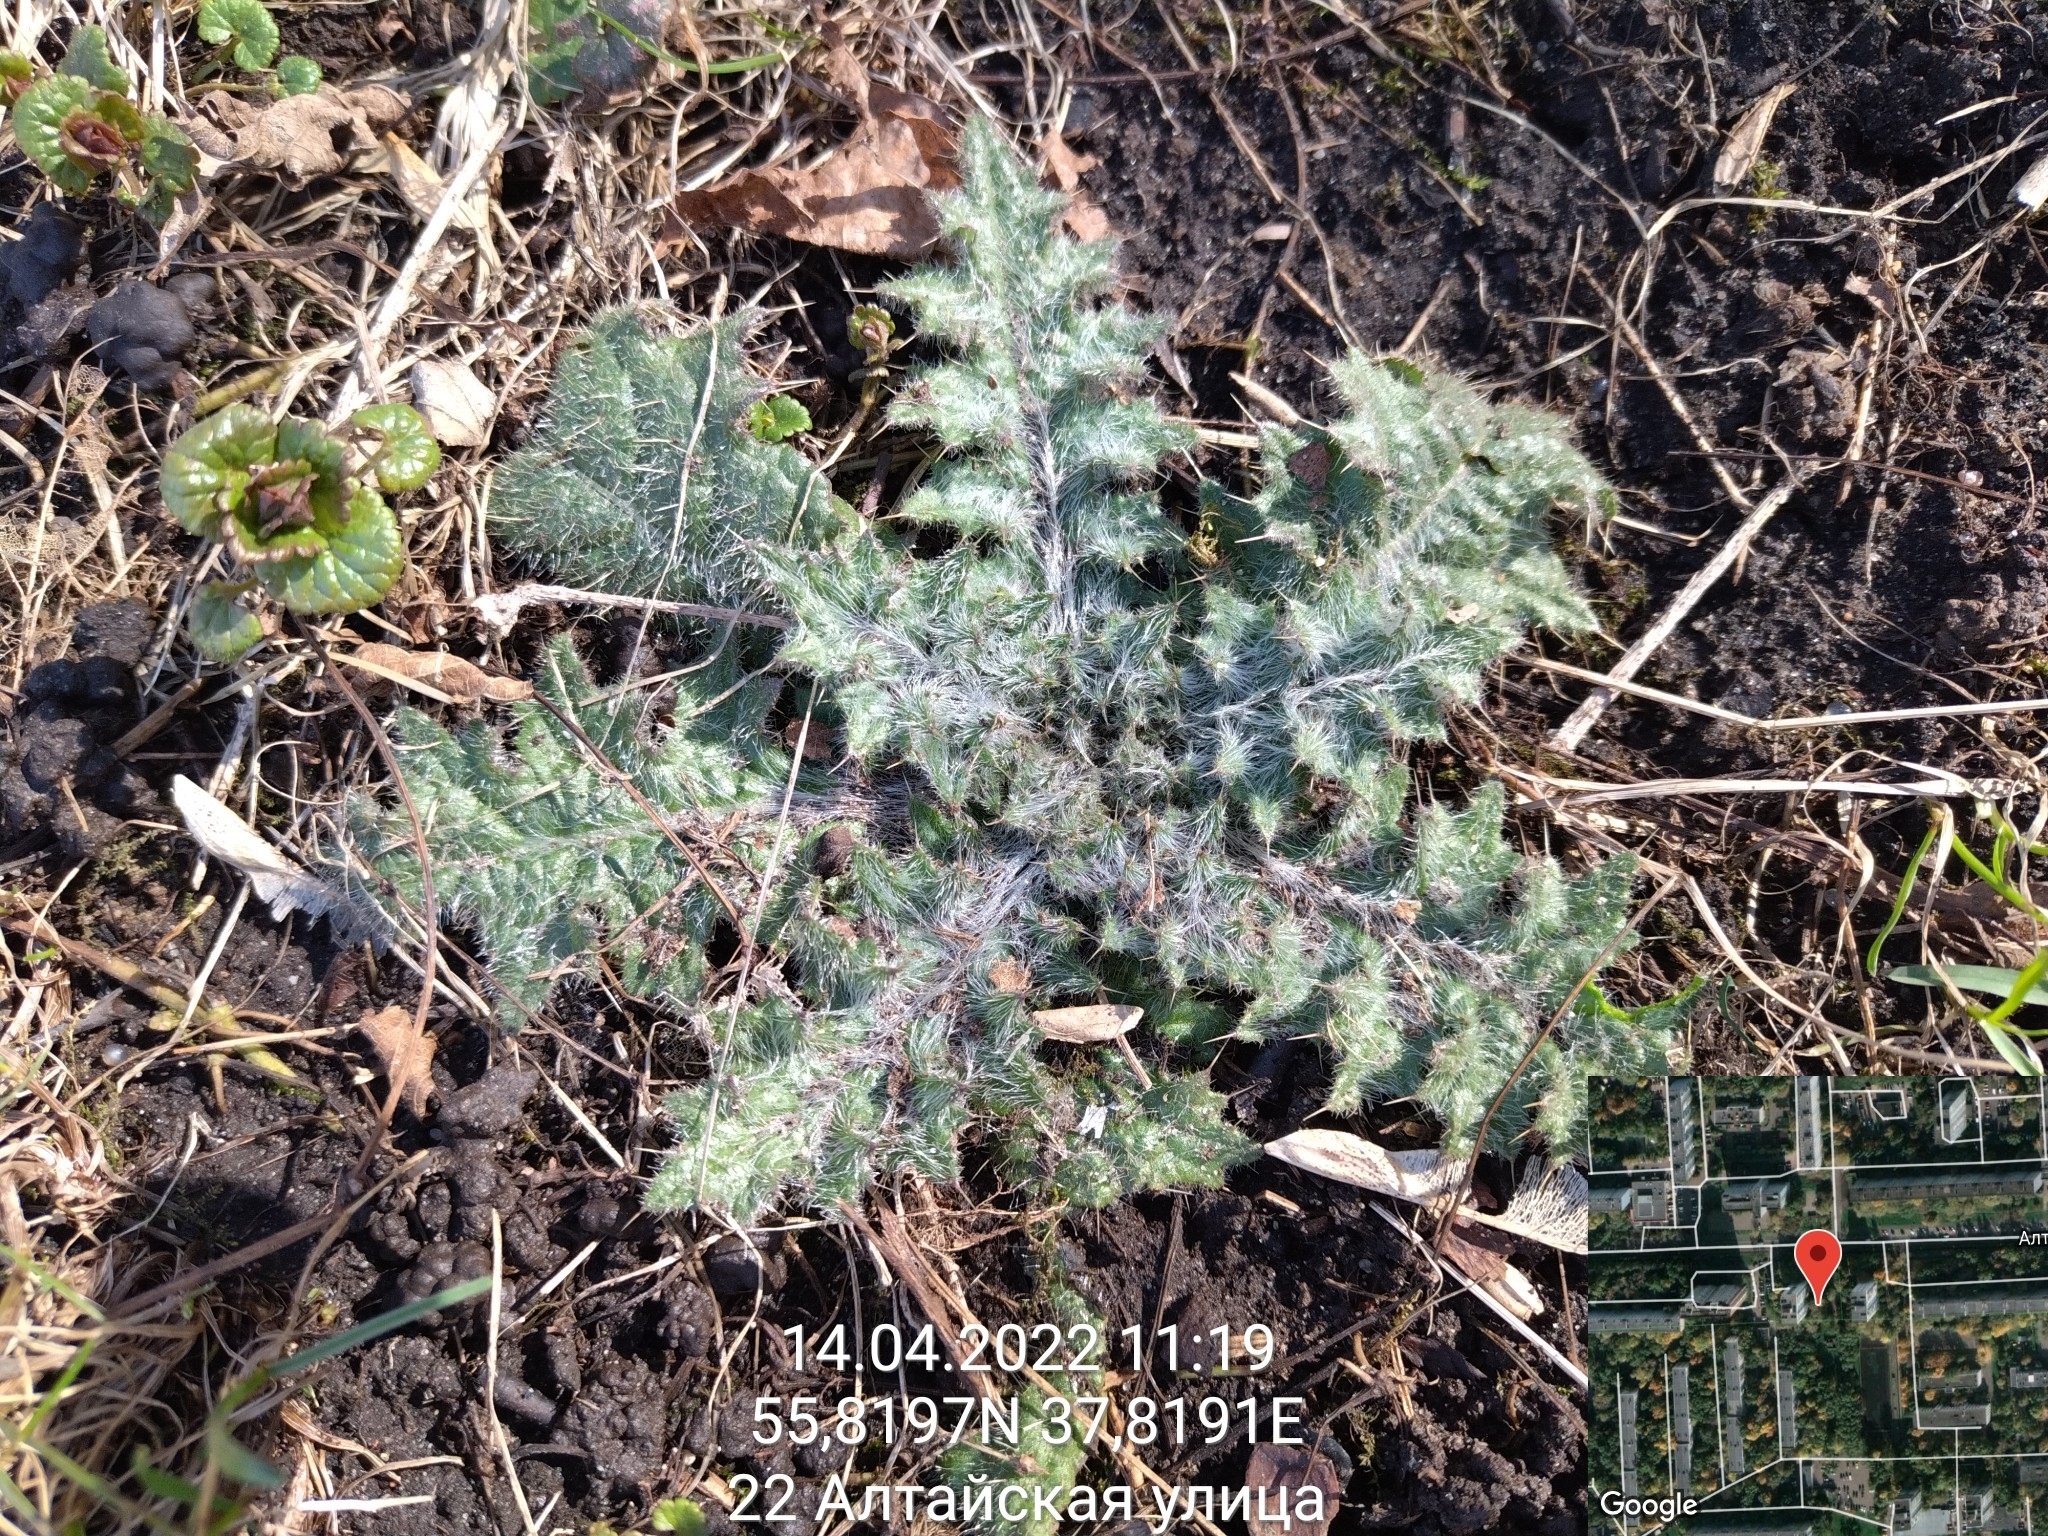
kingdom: Plantae
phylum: Tracheophyta
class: Magnoliopsida
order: Asterales
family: Asteraceae
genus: Cirsium
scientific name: Cirsium vulgare
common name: Bull thistle
